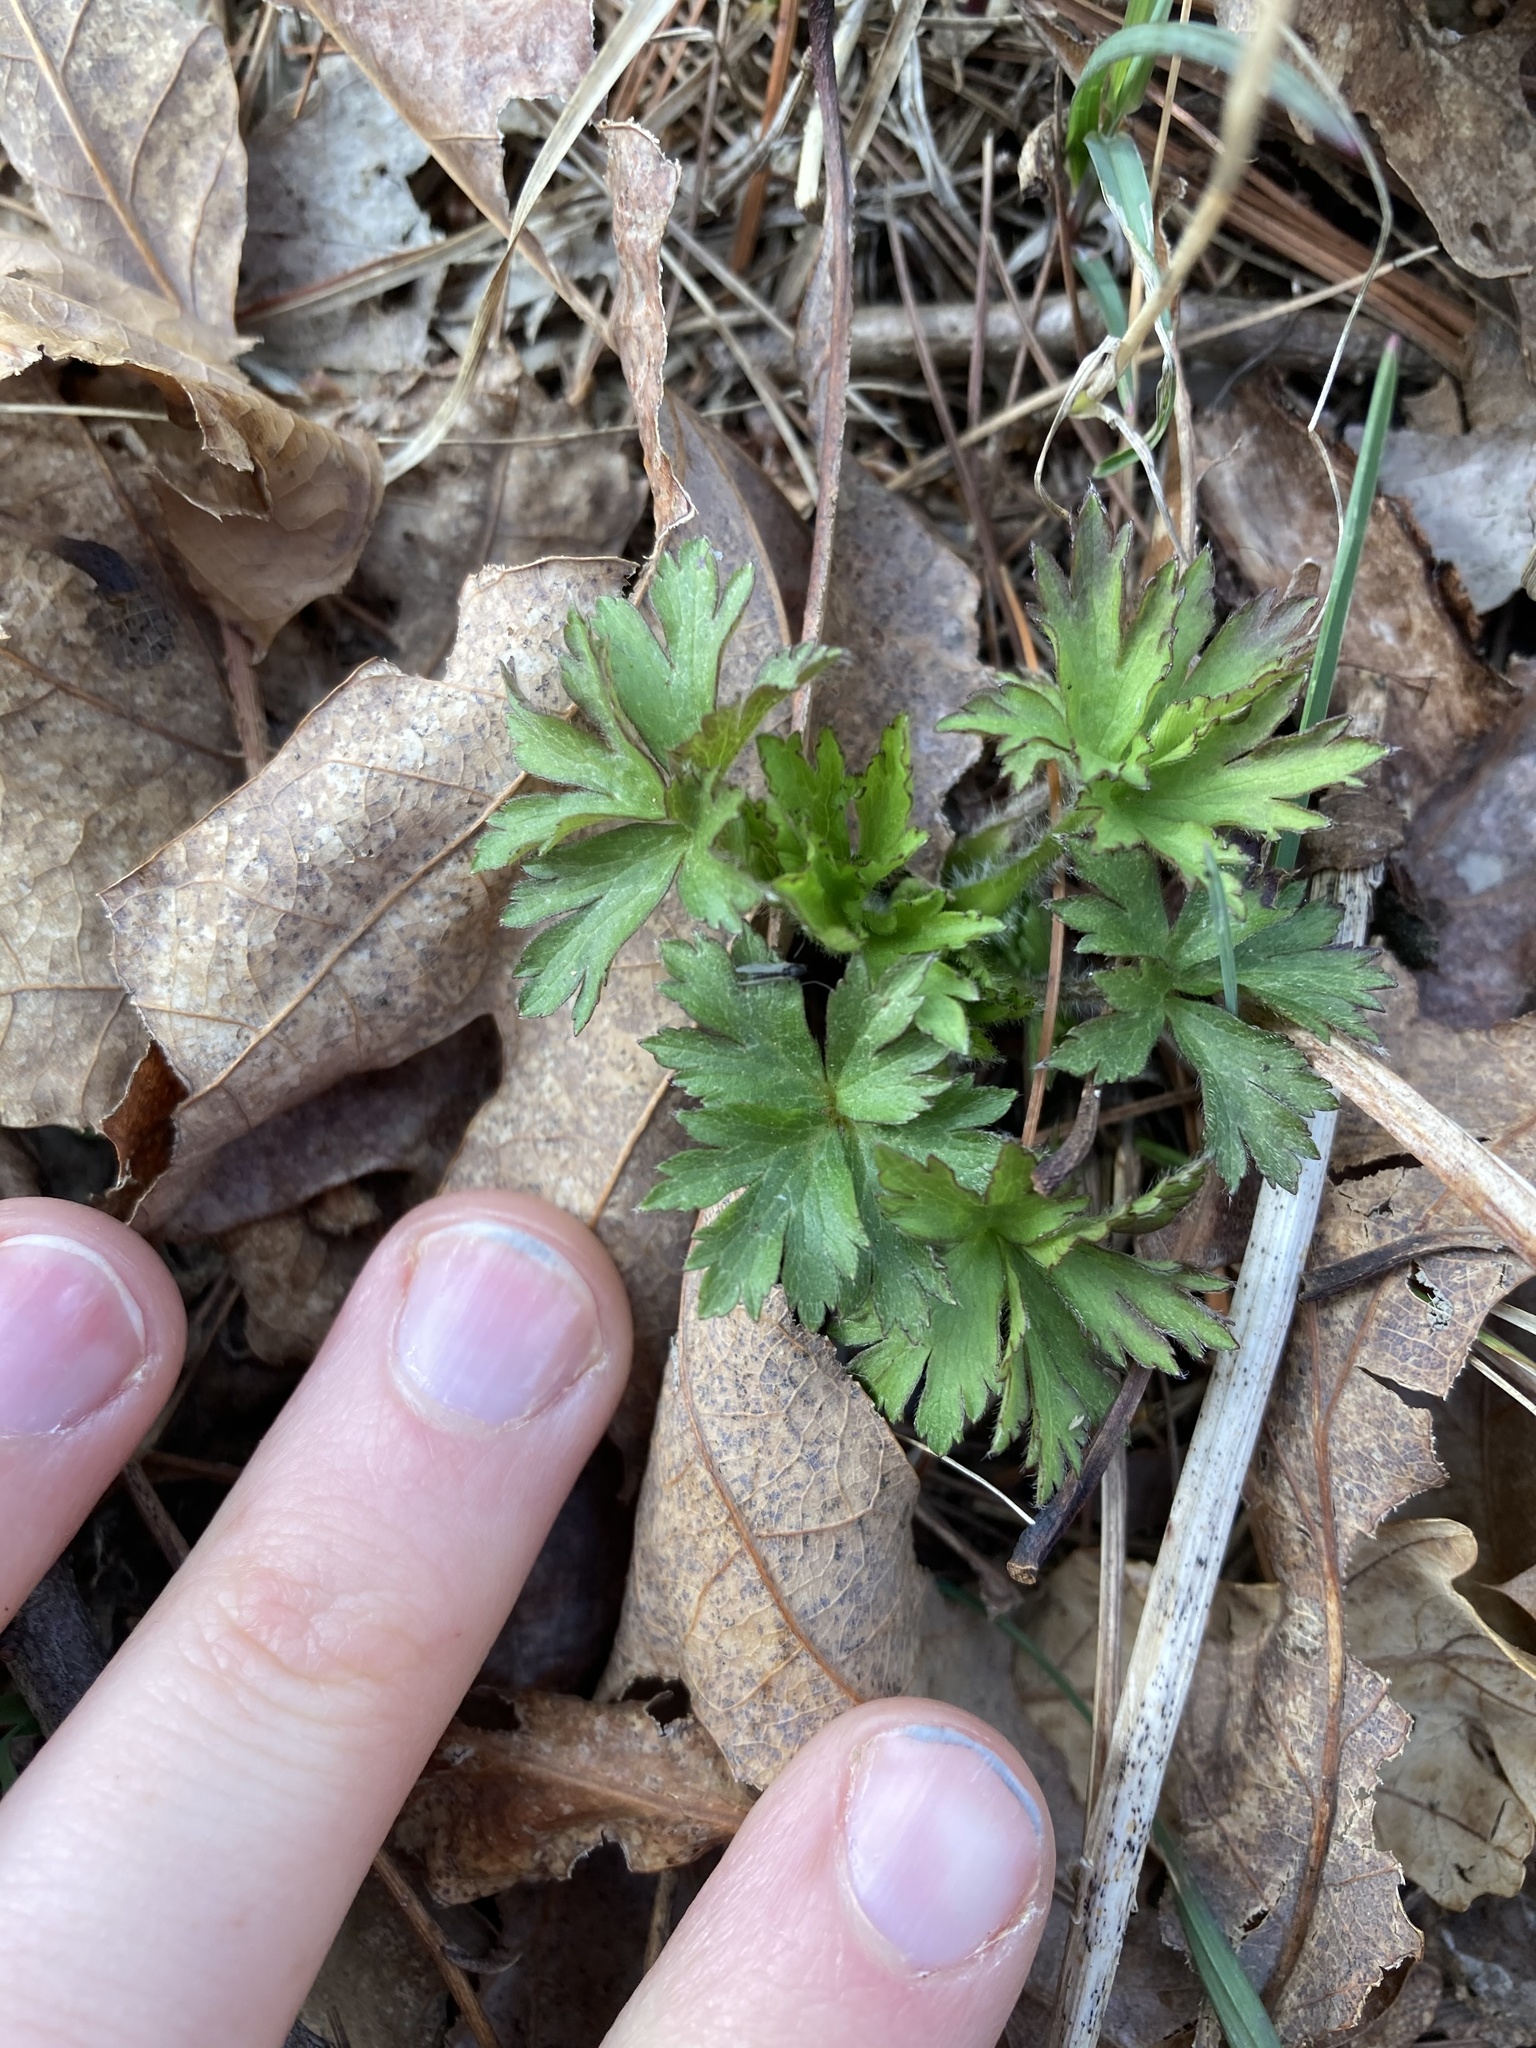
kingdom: Plantae
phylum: Tracheophyta
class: Magnoliopsida
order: Ranunculales
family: Ranunculaceae
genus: Anemone
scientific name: Anemone cylindrica
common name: Candle anemone
